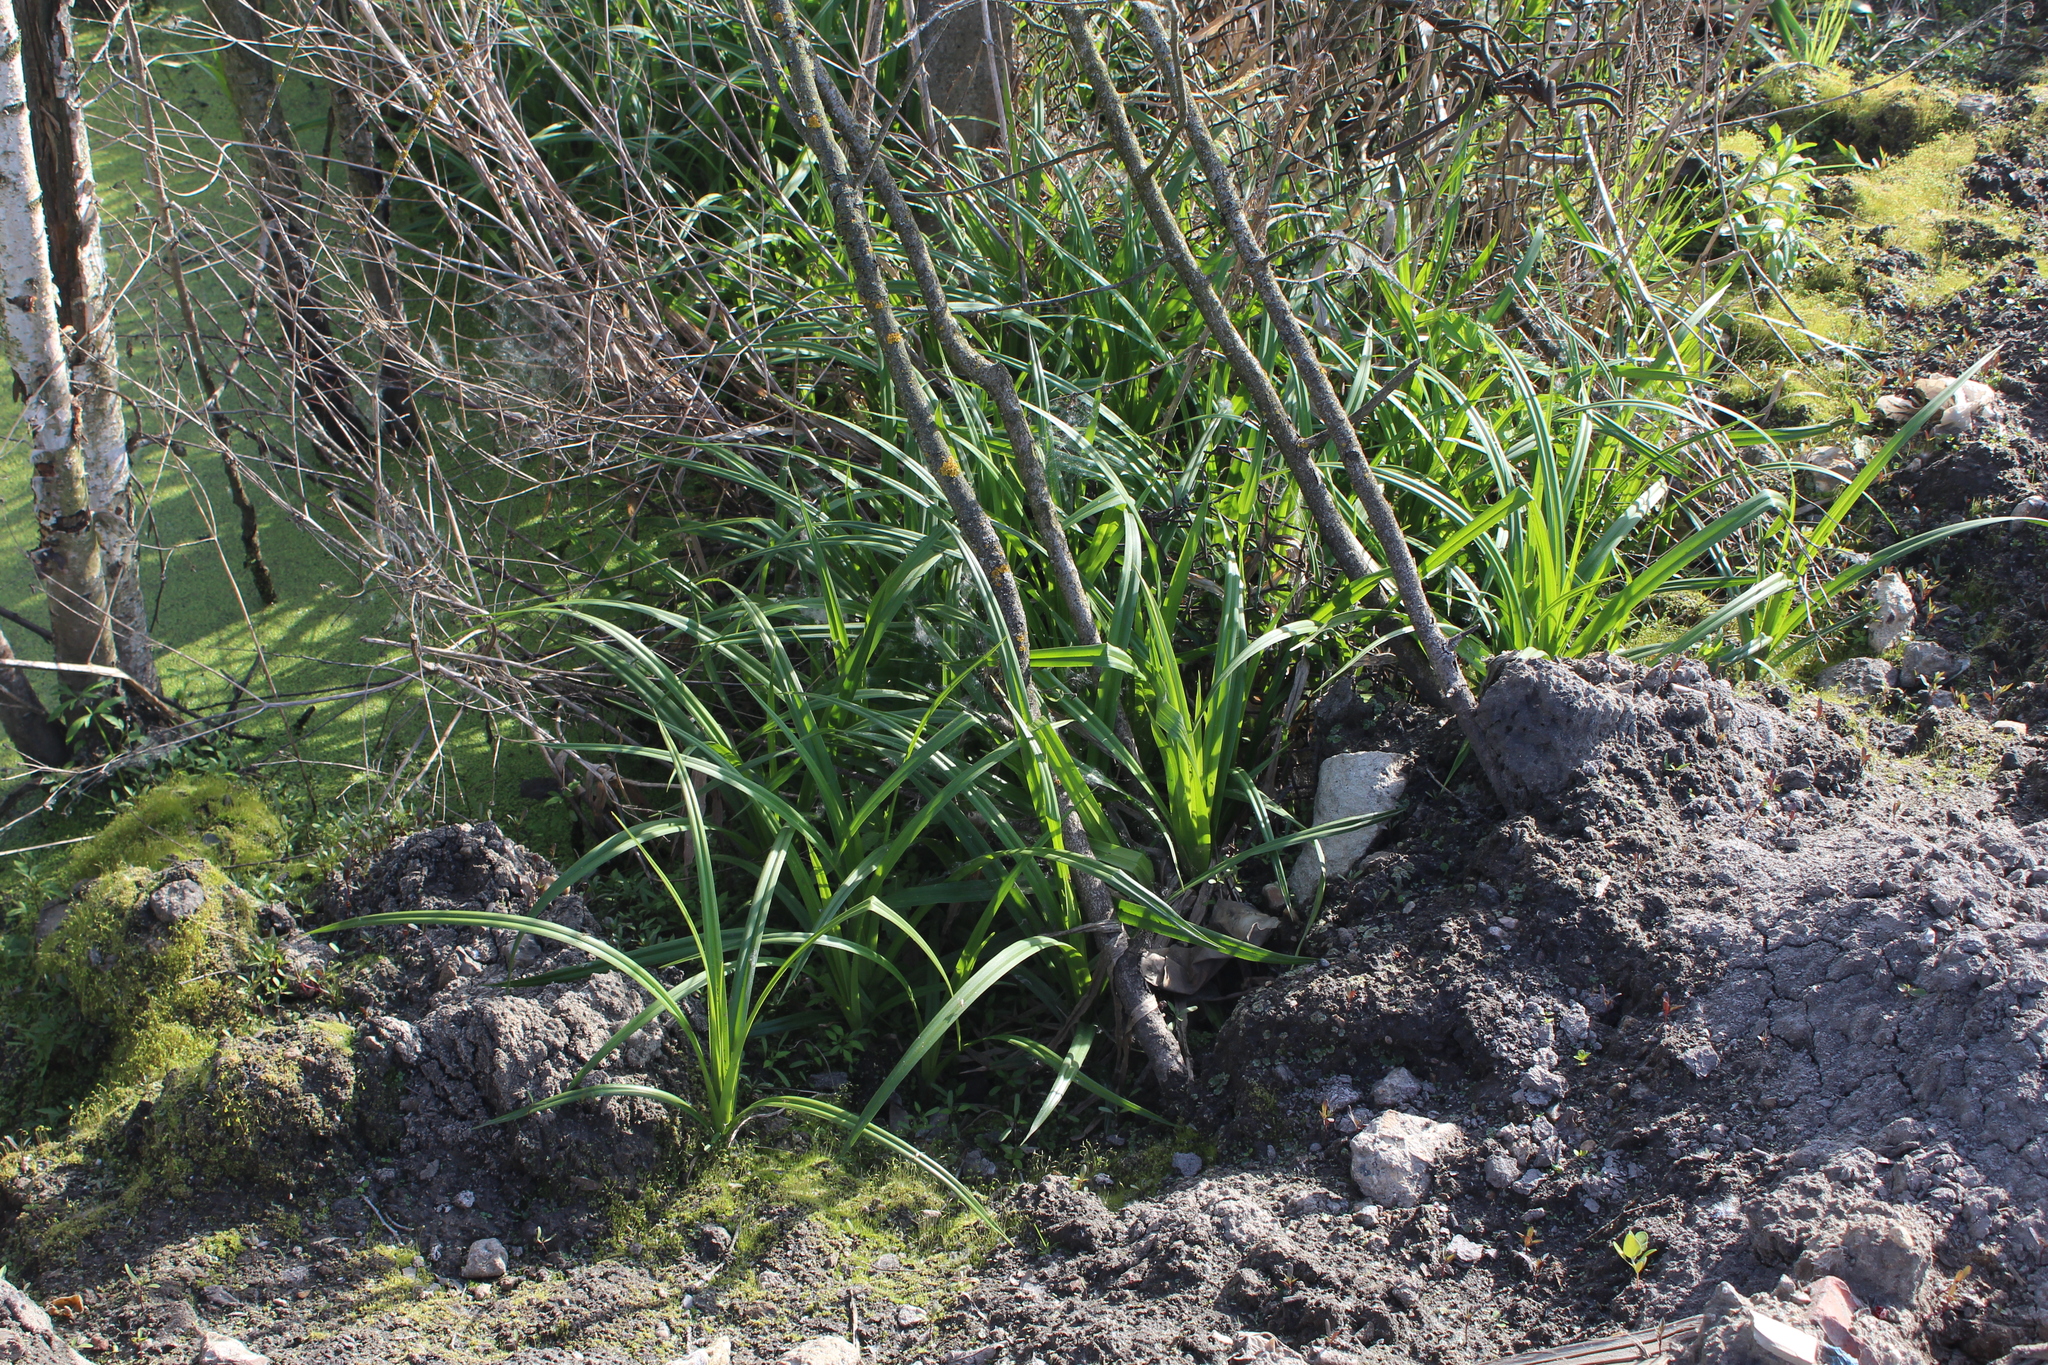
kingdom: Plantae
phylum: Tracheophyta
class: Liliopsida
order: Poales
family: Cyperaceae
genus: Scirpus
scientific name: Scirpus sylvaticus
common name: Wood club-rush
